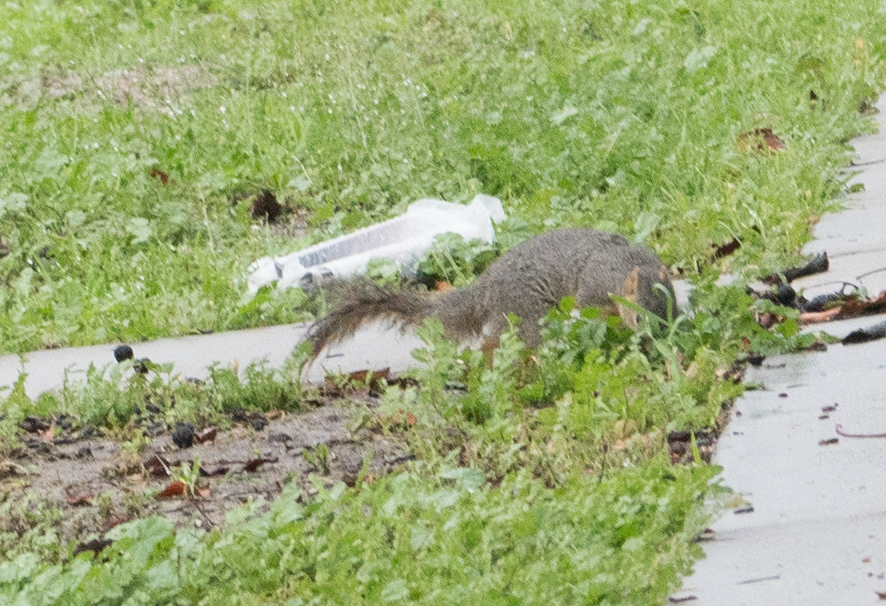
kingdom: Animalia
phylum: Chordata
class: Mammalia
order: Rodentia
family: Sciuridae
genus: Sciurus
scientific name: Sciurus niger
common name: Fox squirrel
